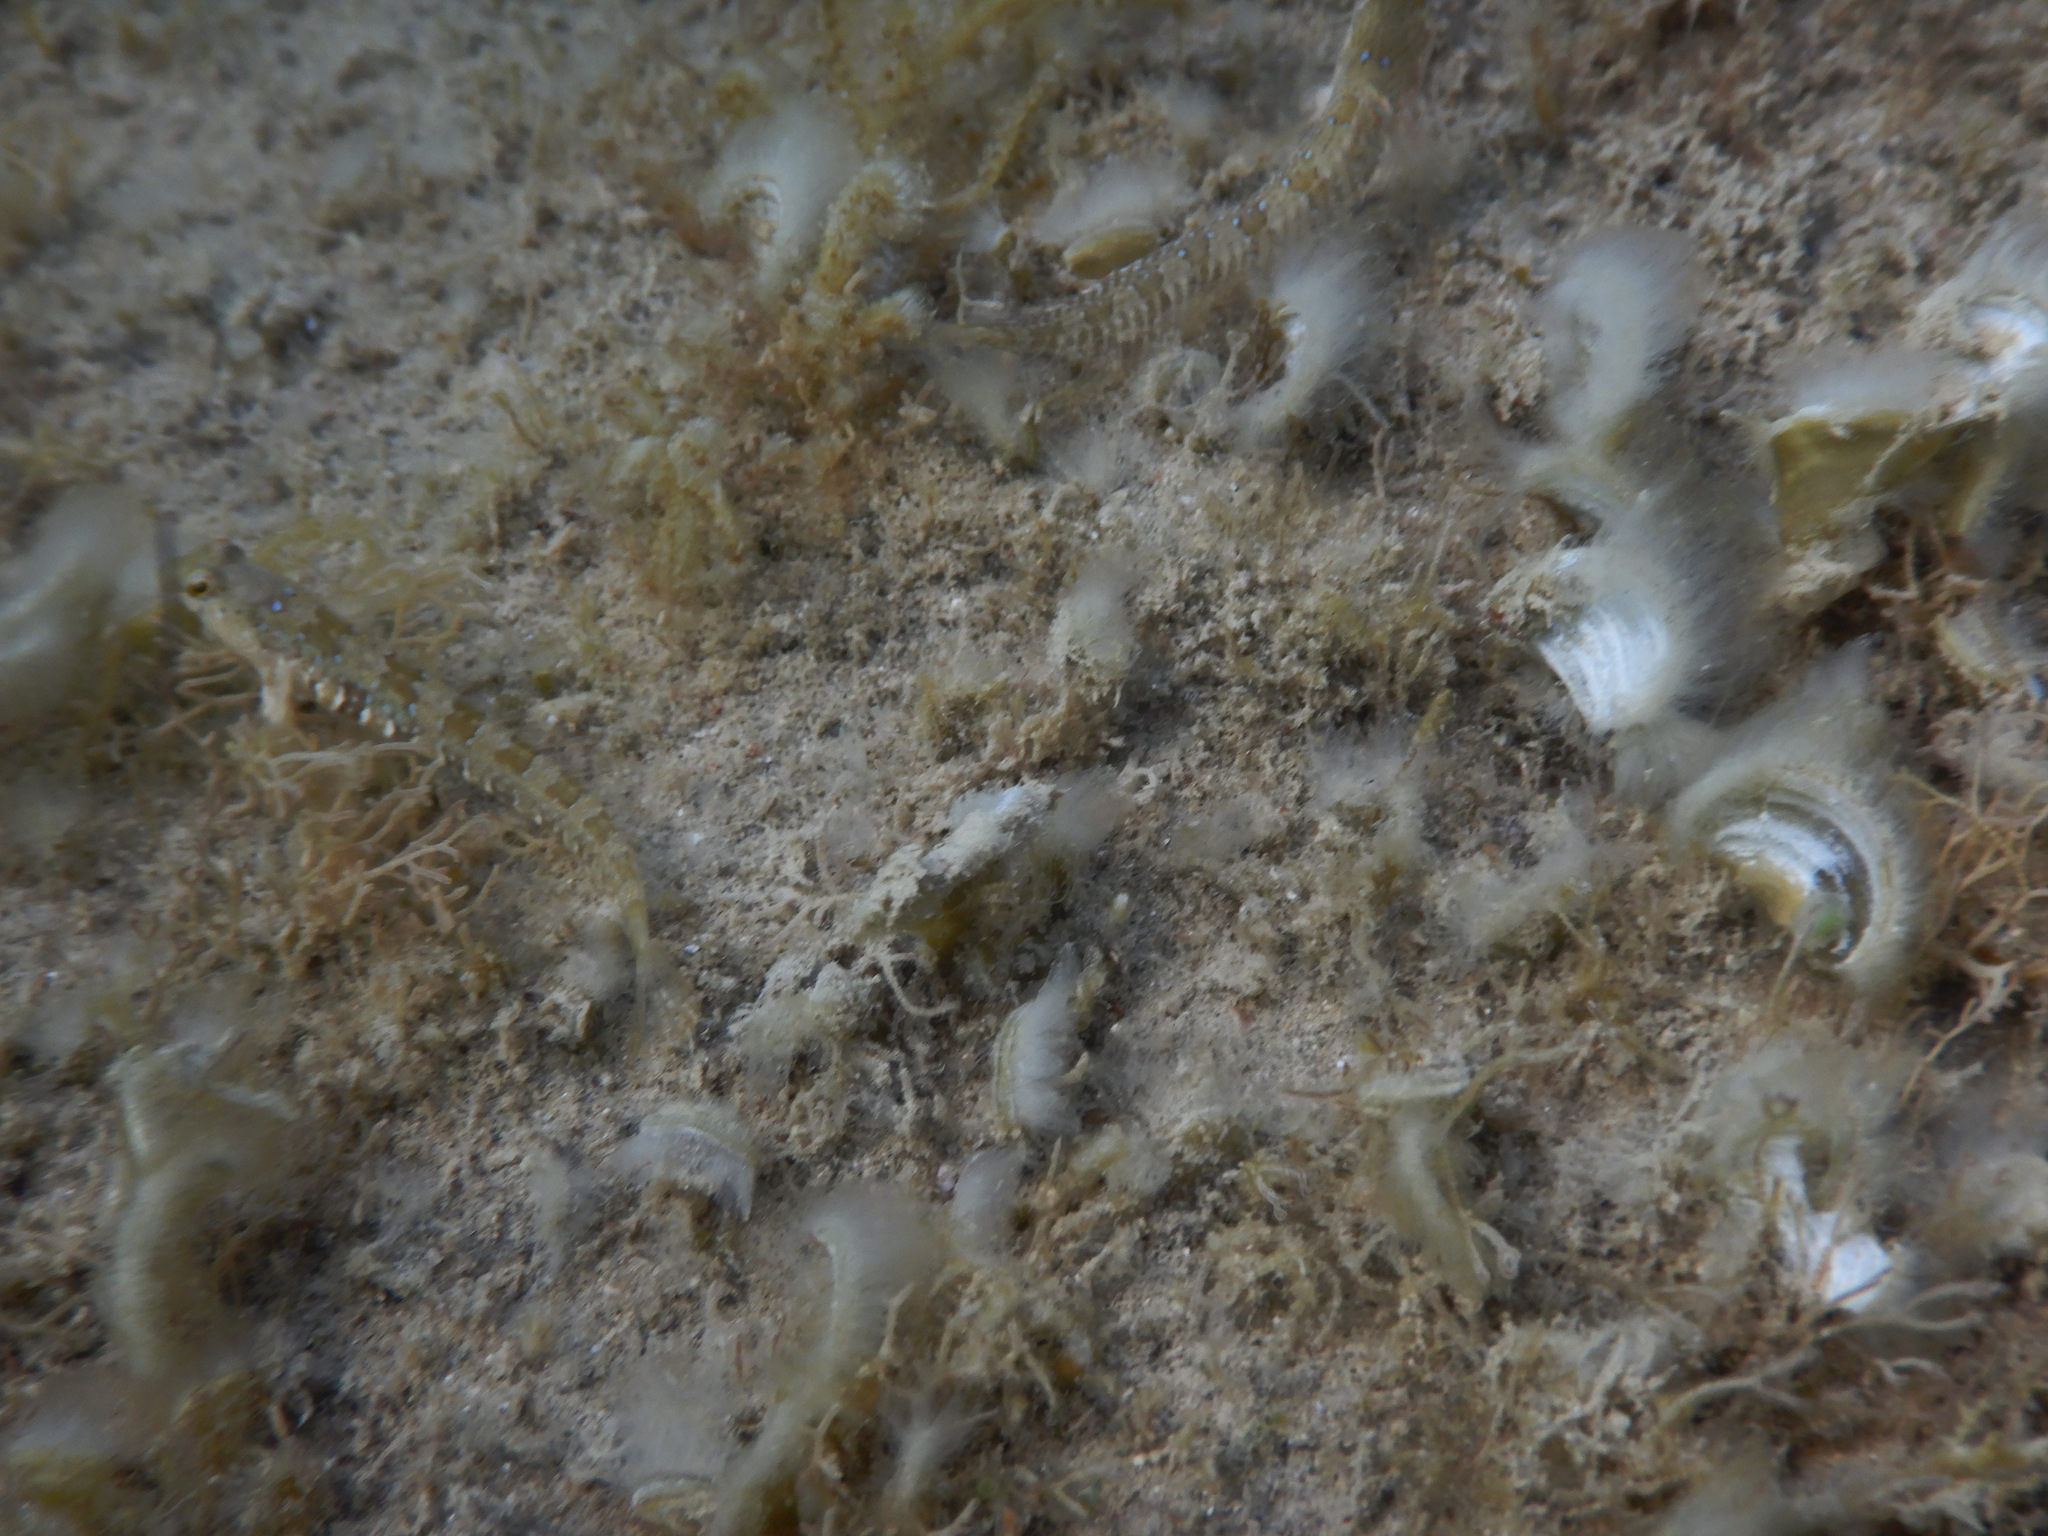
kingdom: Animalia
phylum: Chordata
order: Perciformes
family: Blenniidae
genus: Microlipophrys
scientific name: Microlipophrys dalmatinus
